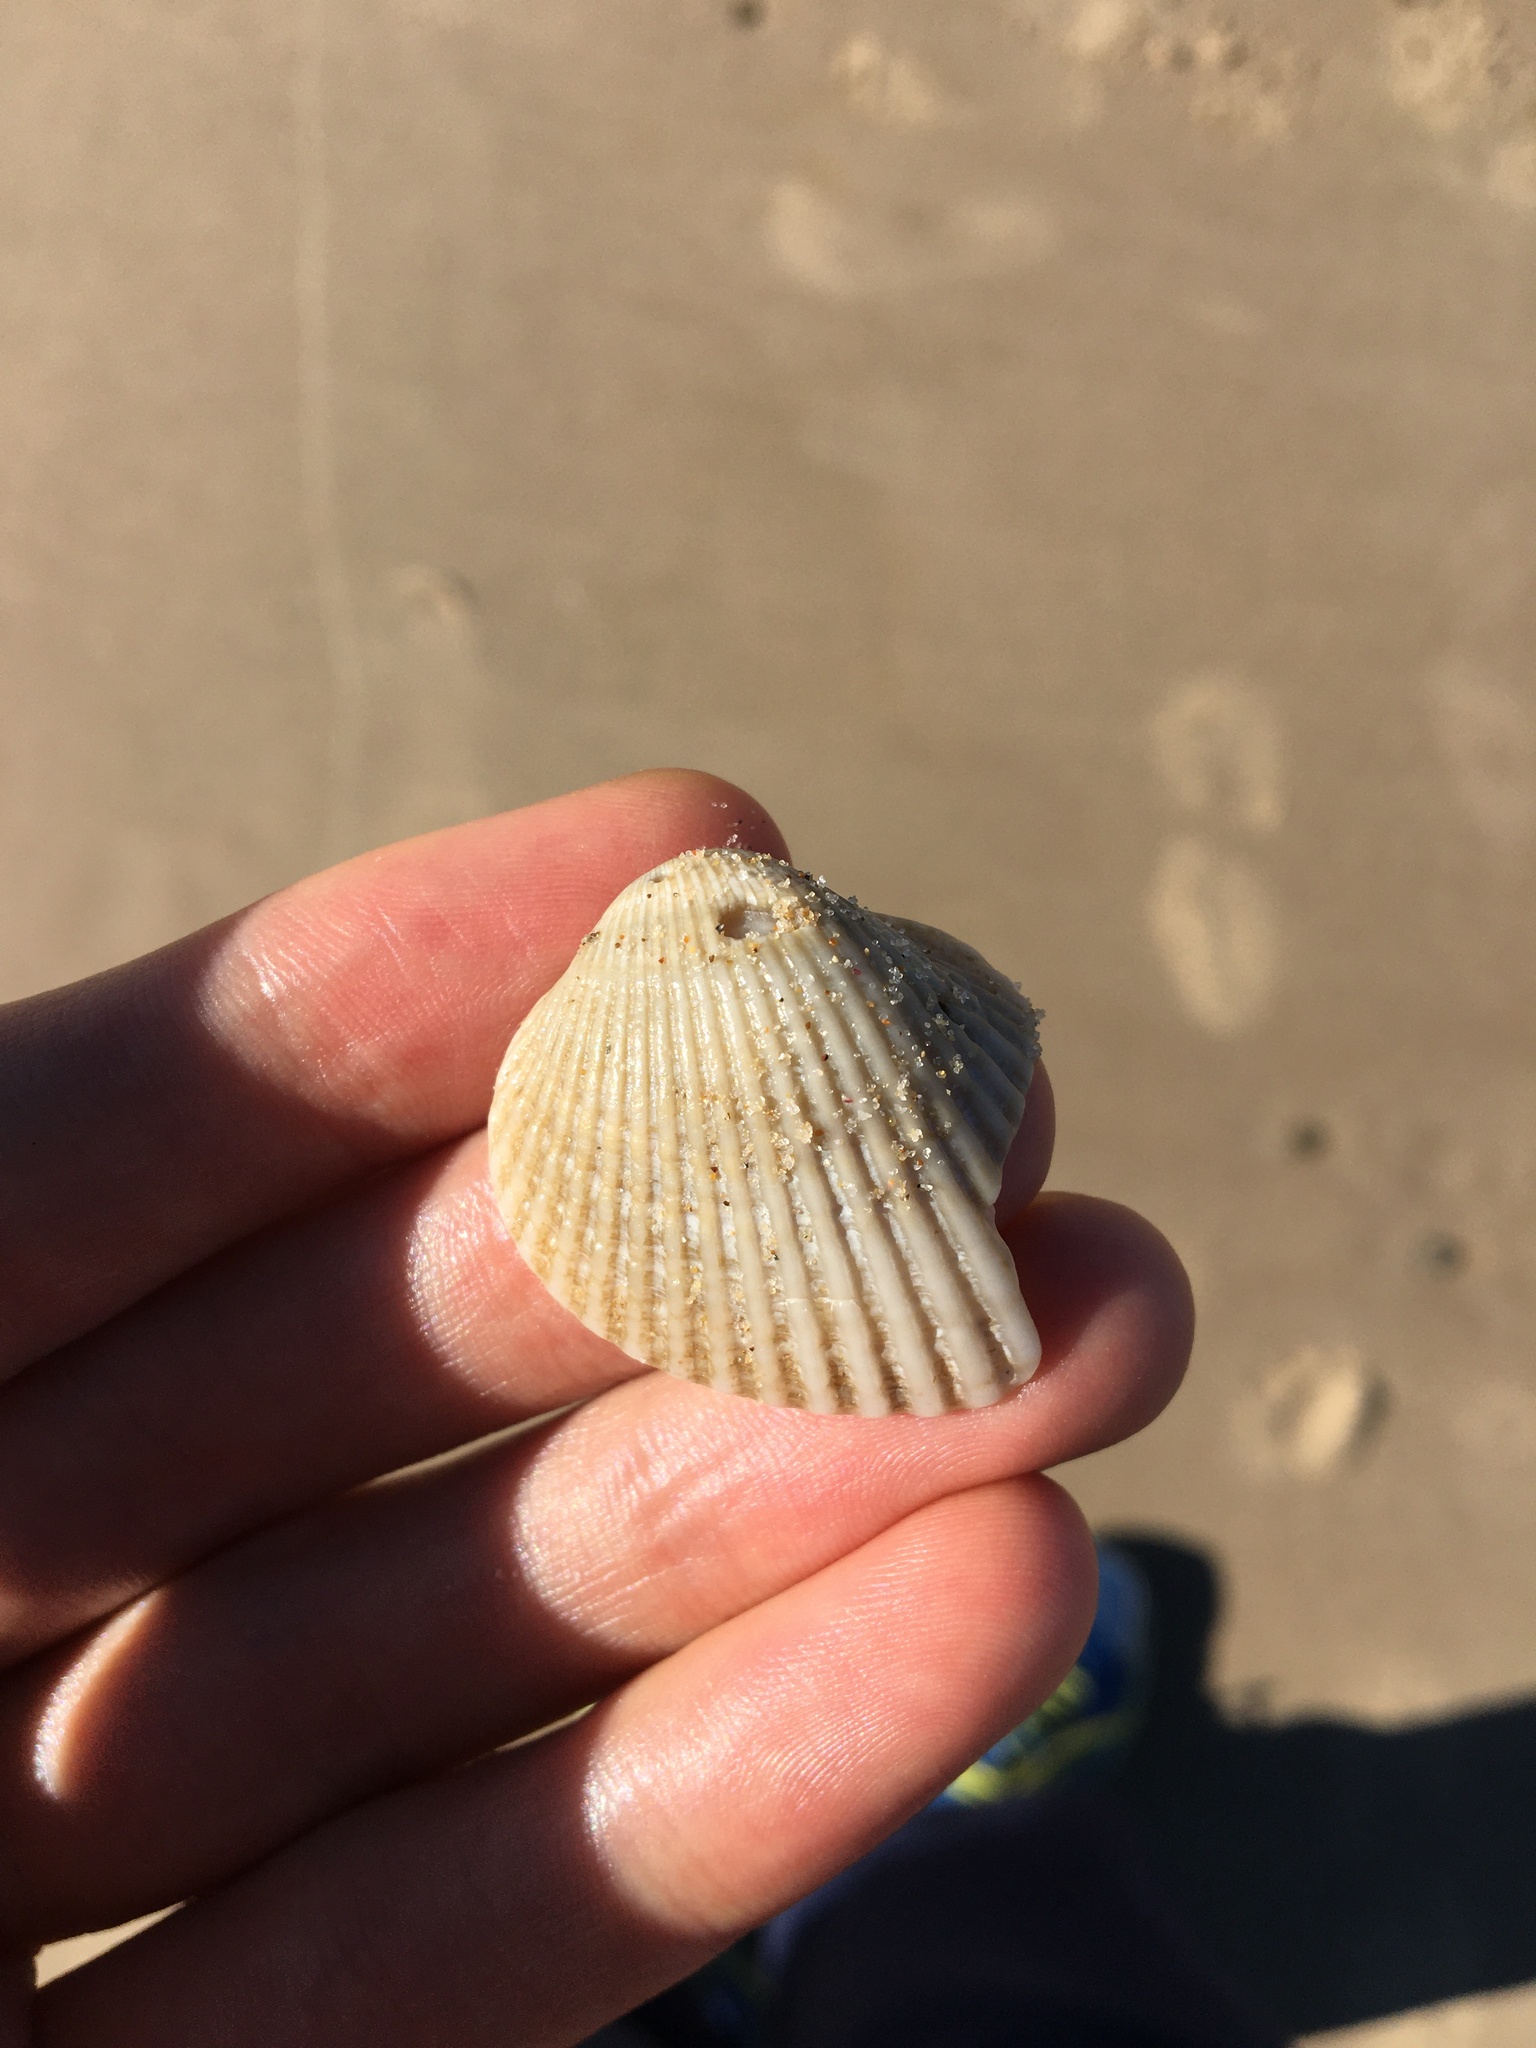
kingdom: Animalia
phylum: Mollusca
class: Bivalvia
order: Arcida
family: Arcidae
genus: Anadara
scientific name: Anadara trapezia
